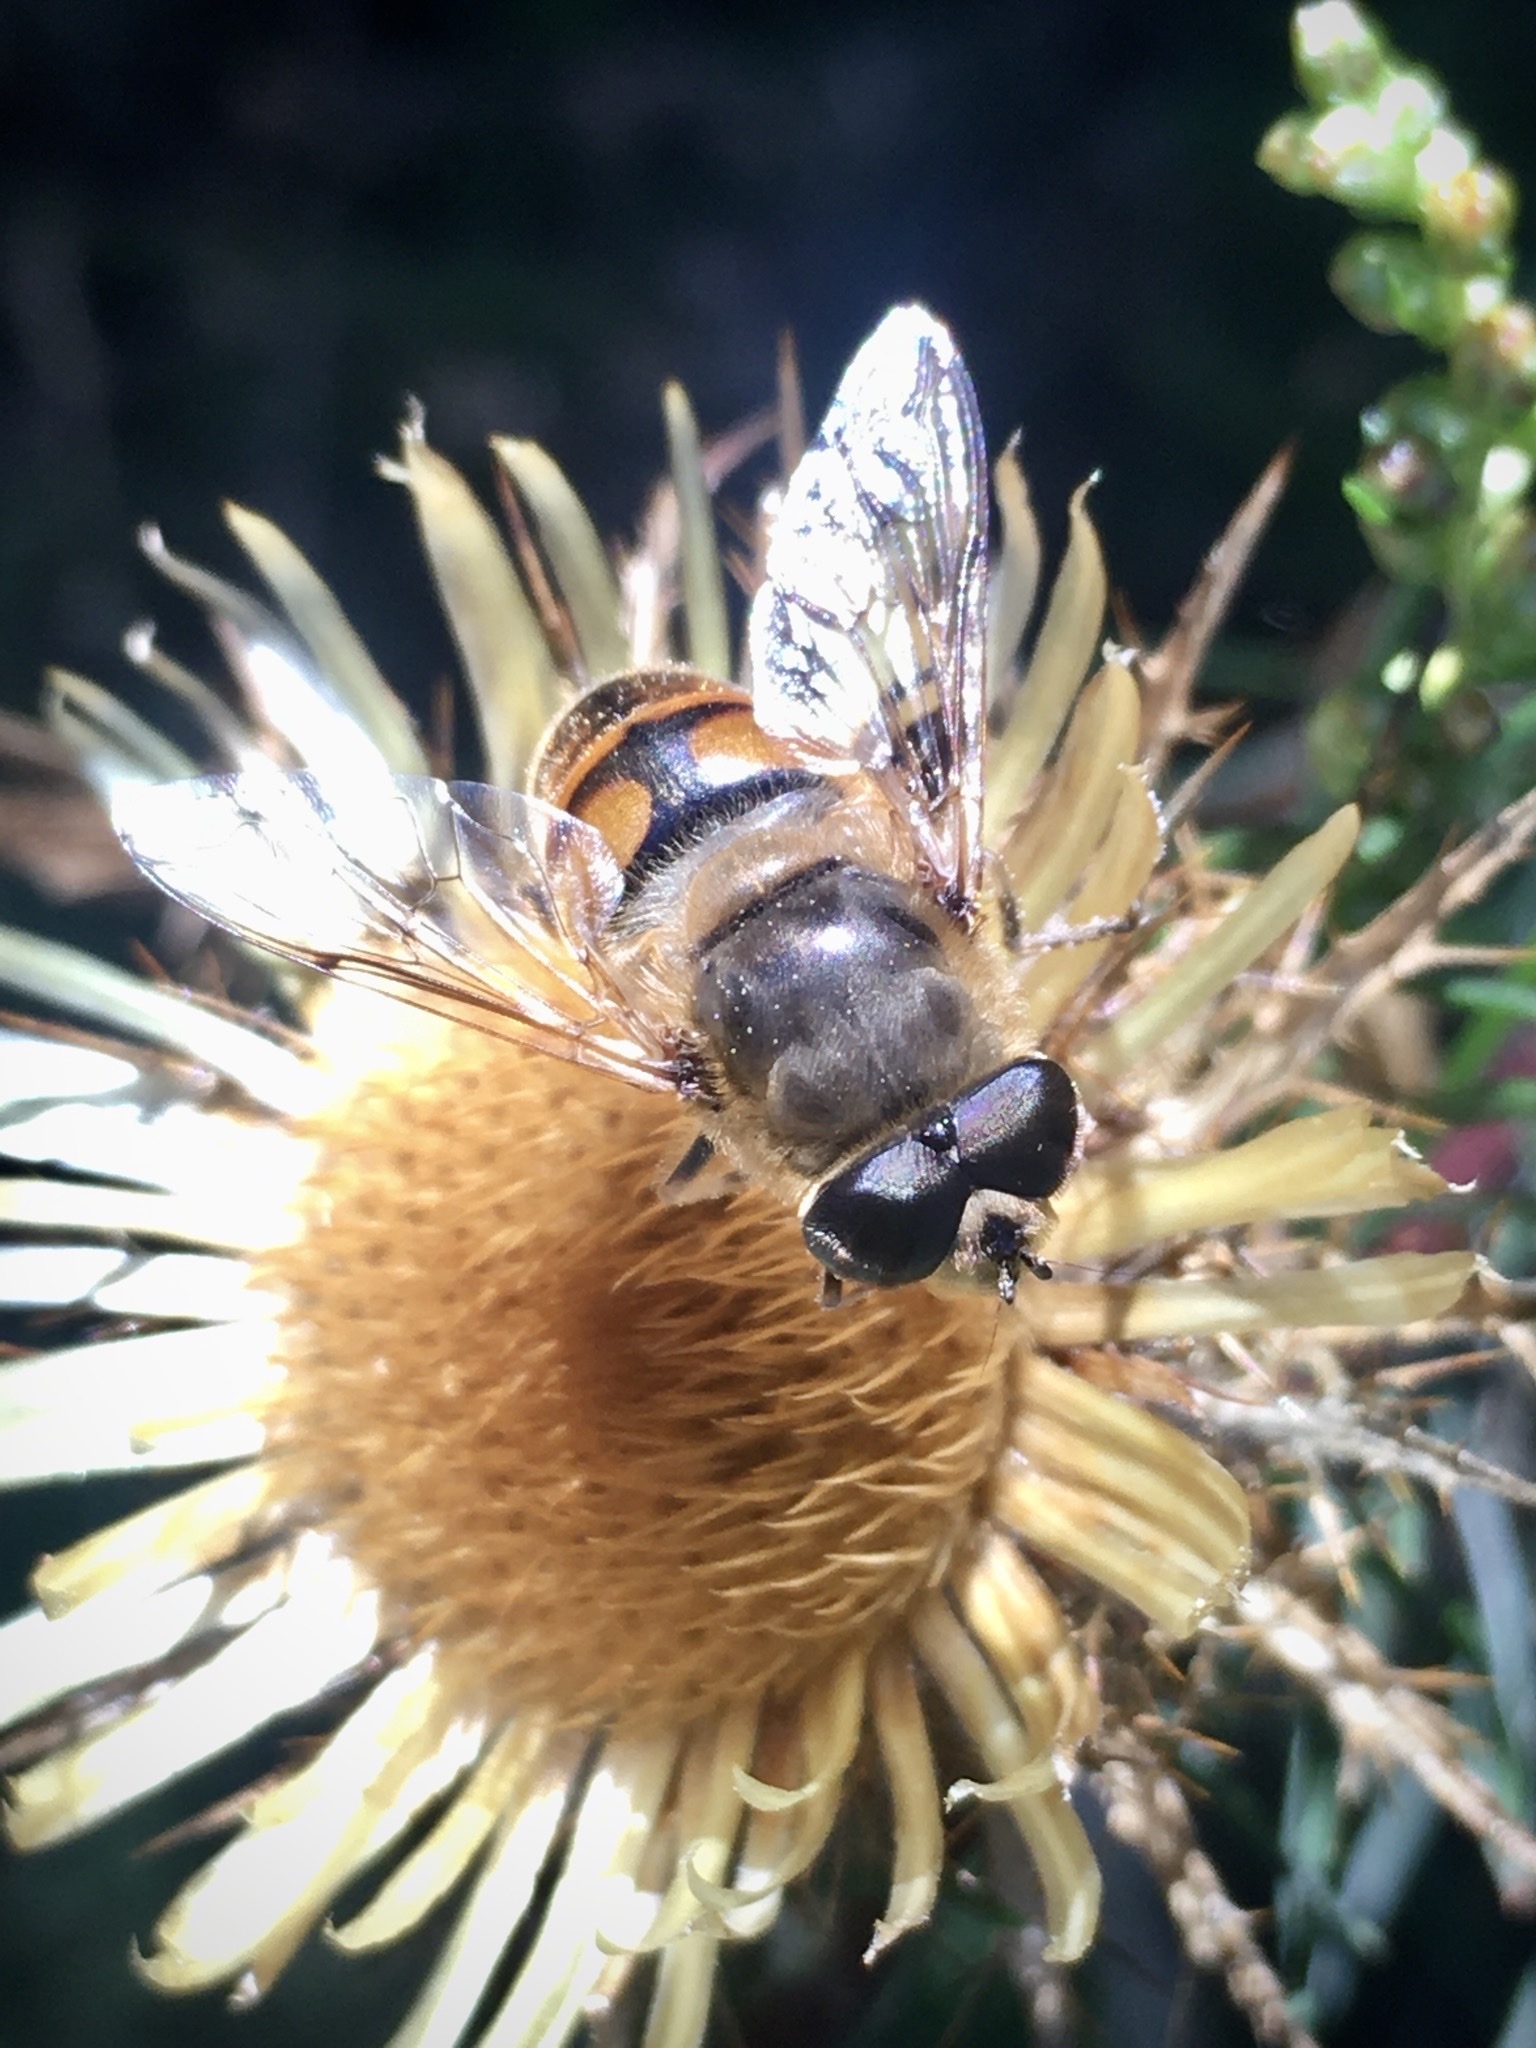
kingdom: Animalia
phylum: Arthropoda
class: Insecta
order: Diptera
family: Syrphidae
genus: Eristalis
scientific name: Eristalis tenax
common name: Drone fly
